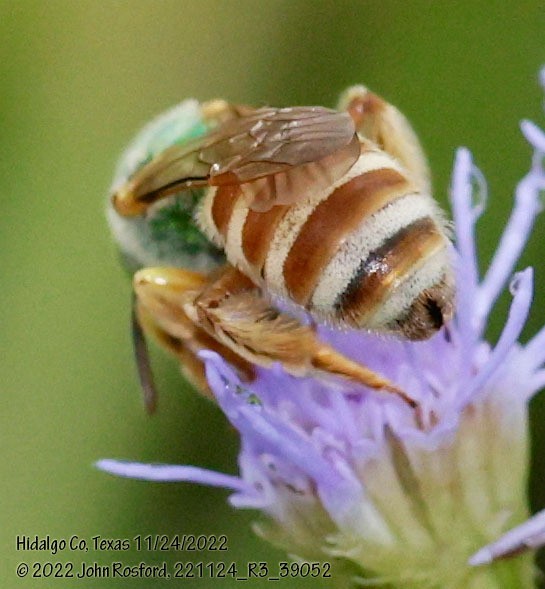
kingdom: Animalia
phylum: Arthropoda
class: Insecta
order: Hymenoptera
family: Halictidae
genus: Agapostemon
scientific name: Agapostemon melliventris
